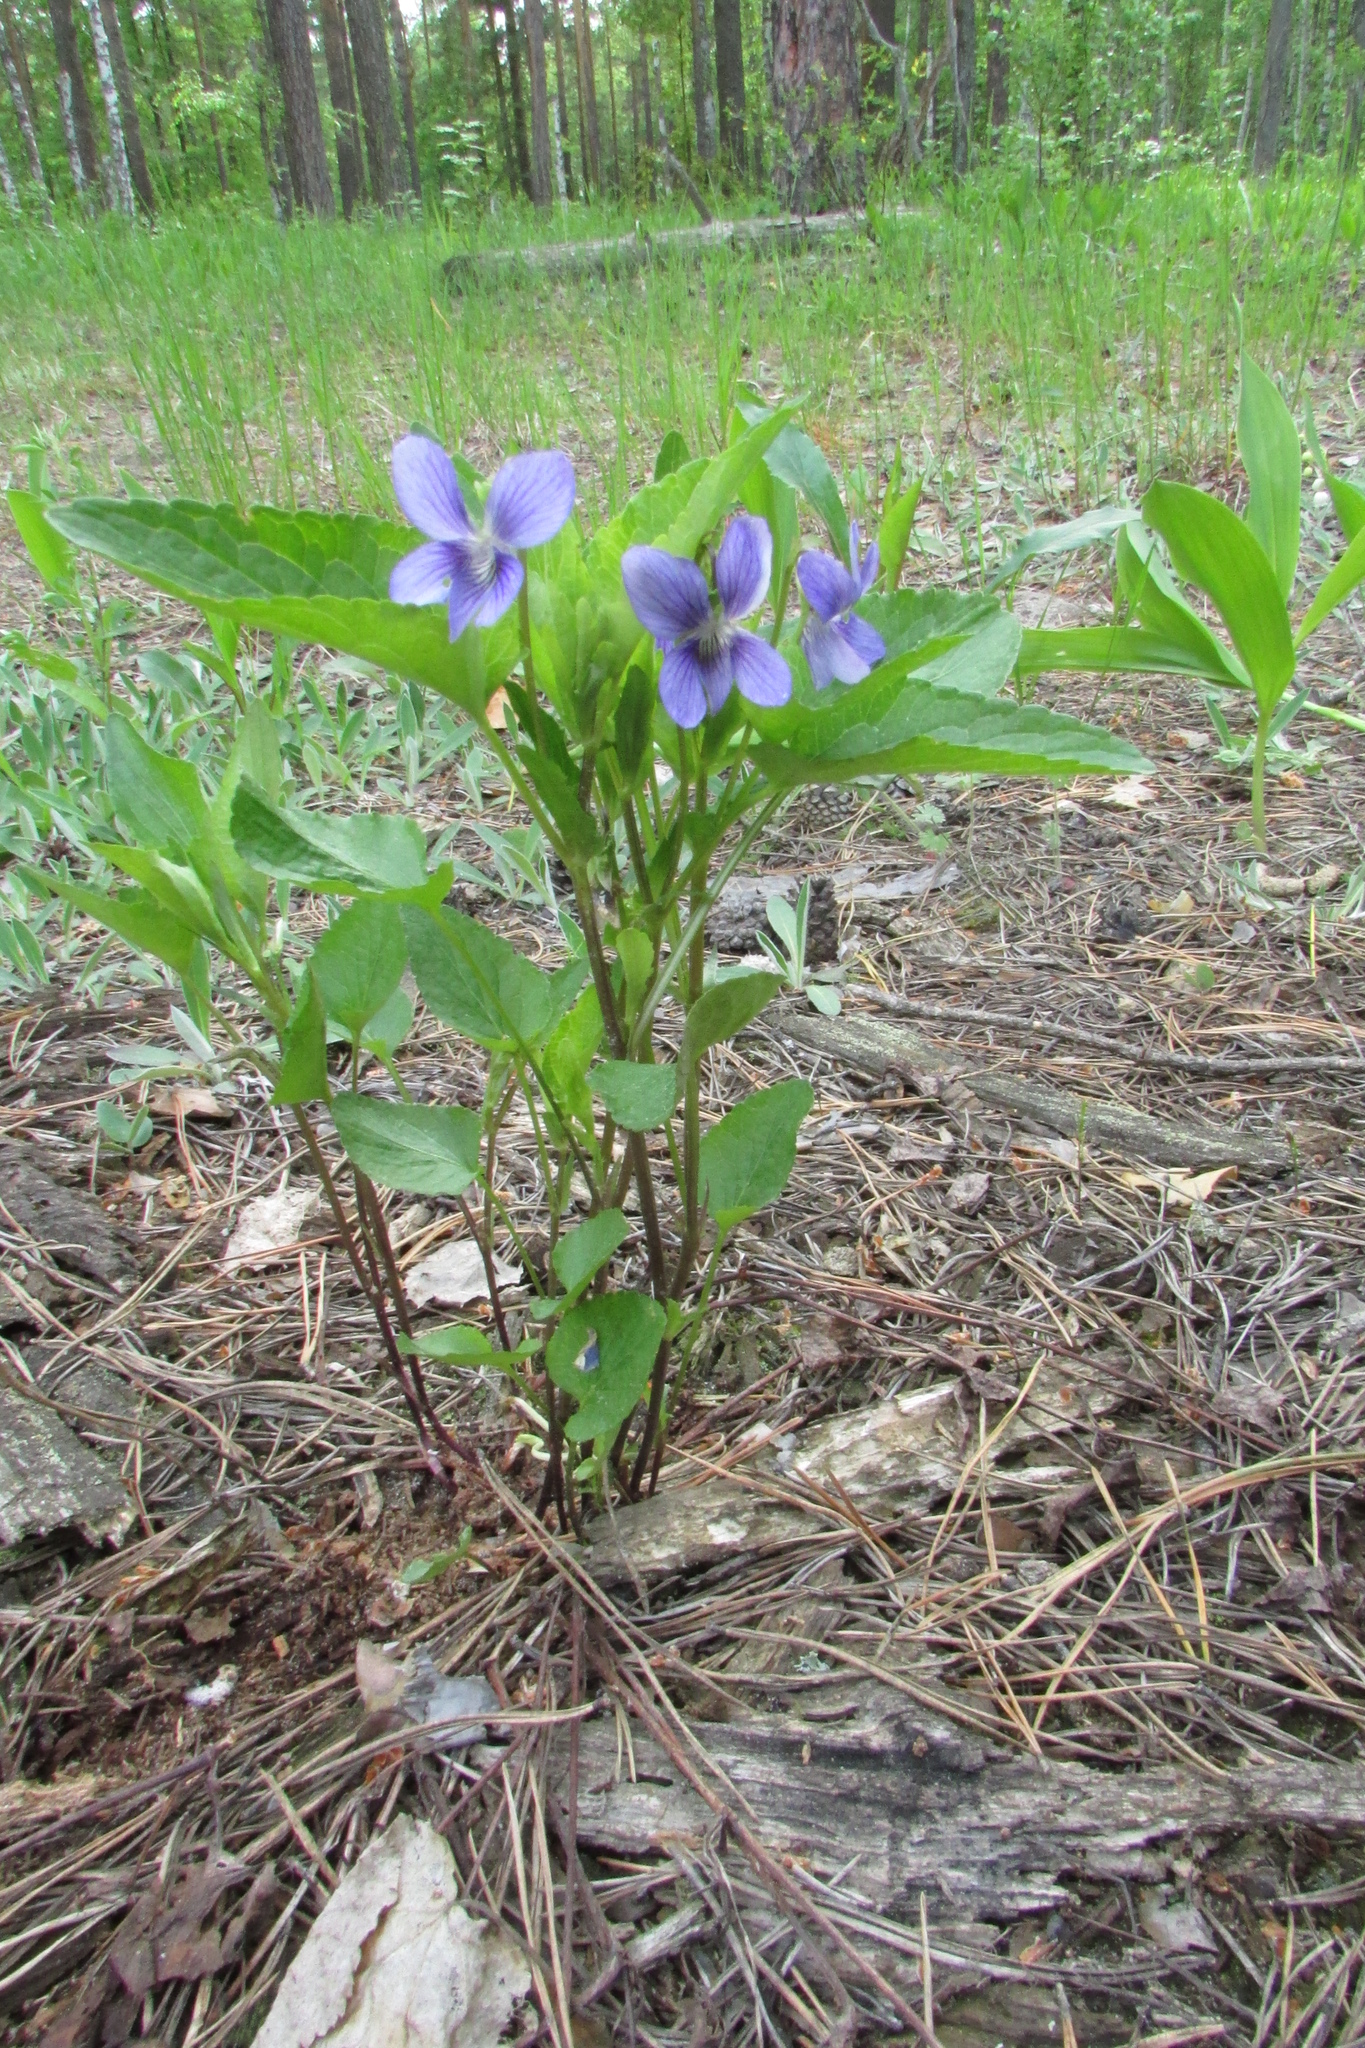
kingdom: Plantae
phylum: Tracheophyta
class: Magnoliopsida
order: Malpighiales
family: Violaceae
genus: Viola
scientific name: Viola
